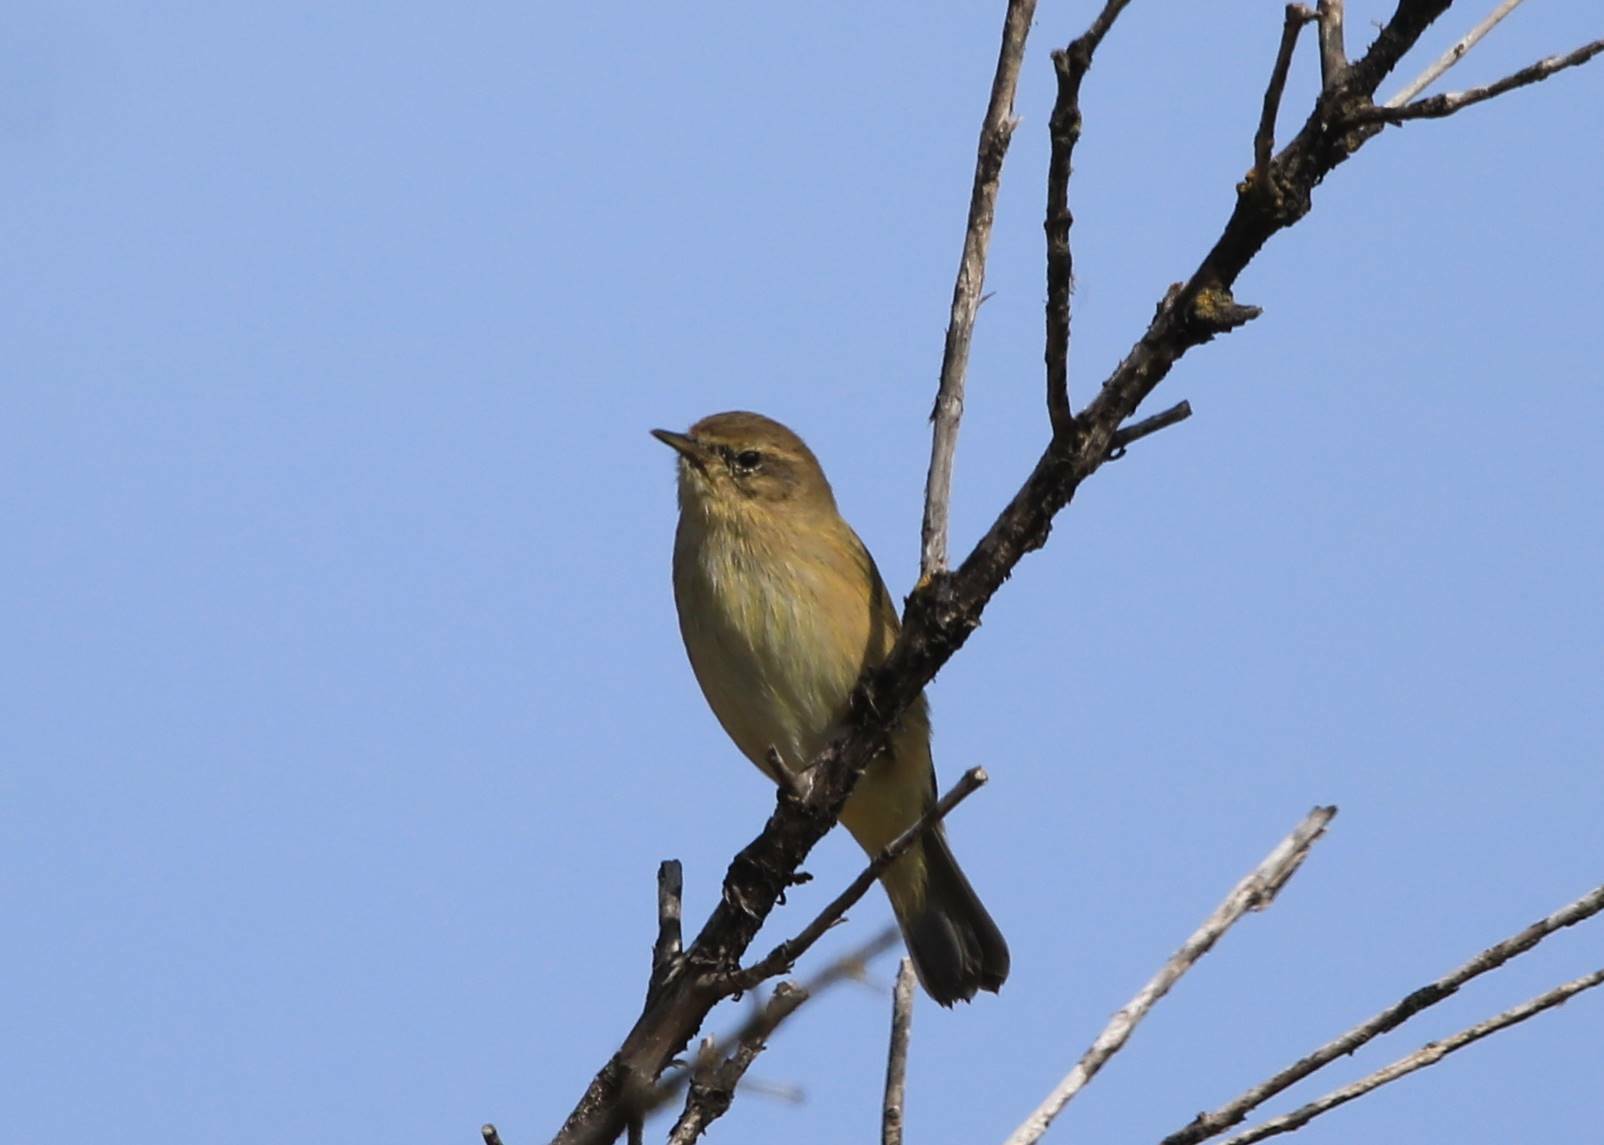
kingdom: Animalia
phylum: Chordata
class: Aves
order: Passeriformes
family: Phylloscopidae
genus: Phylloscopus
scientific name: Phylloscopus collybita
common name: Common chiffchaff
